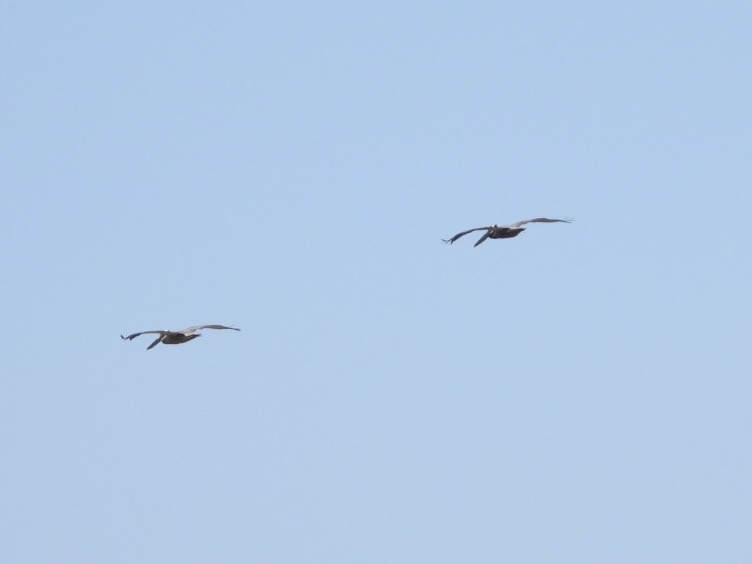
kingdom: Animalia
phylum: Chordata
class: Aves
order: Pelecaniformes
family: Pelecanidae
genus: Pelecanus
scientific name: Pelecanus occidentalis
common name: Brown pelican
